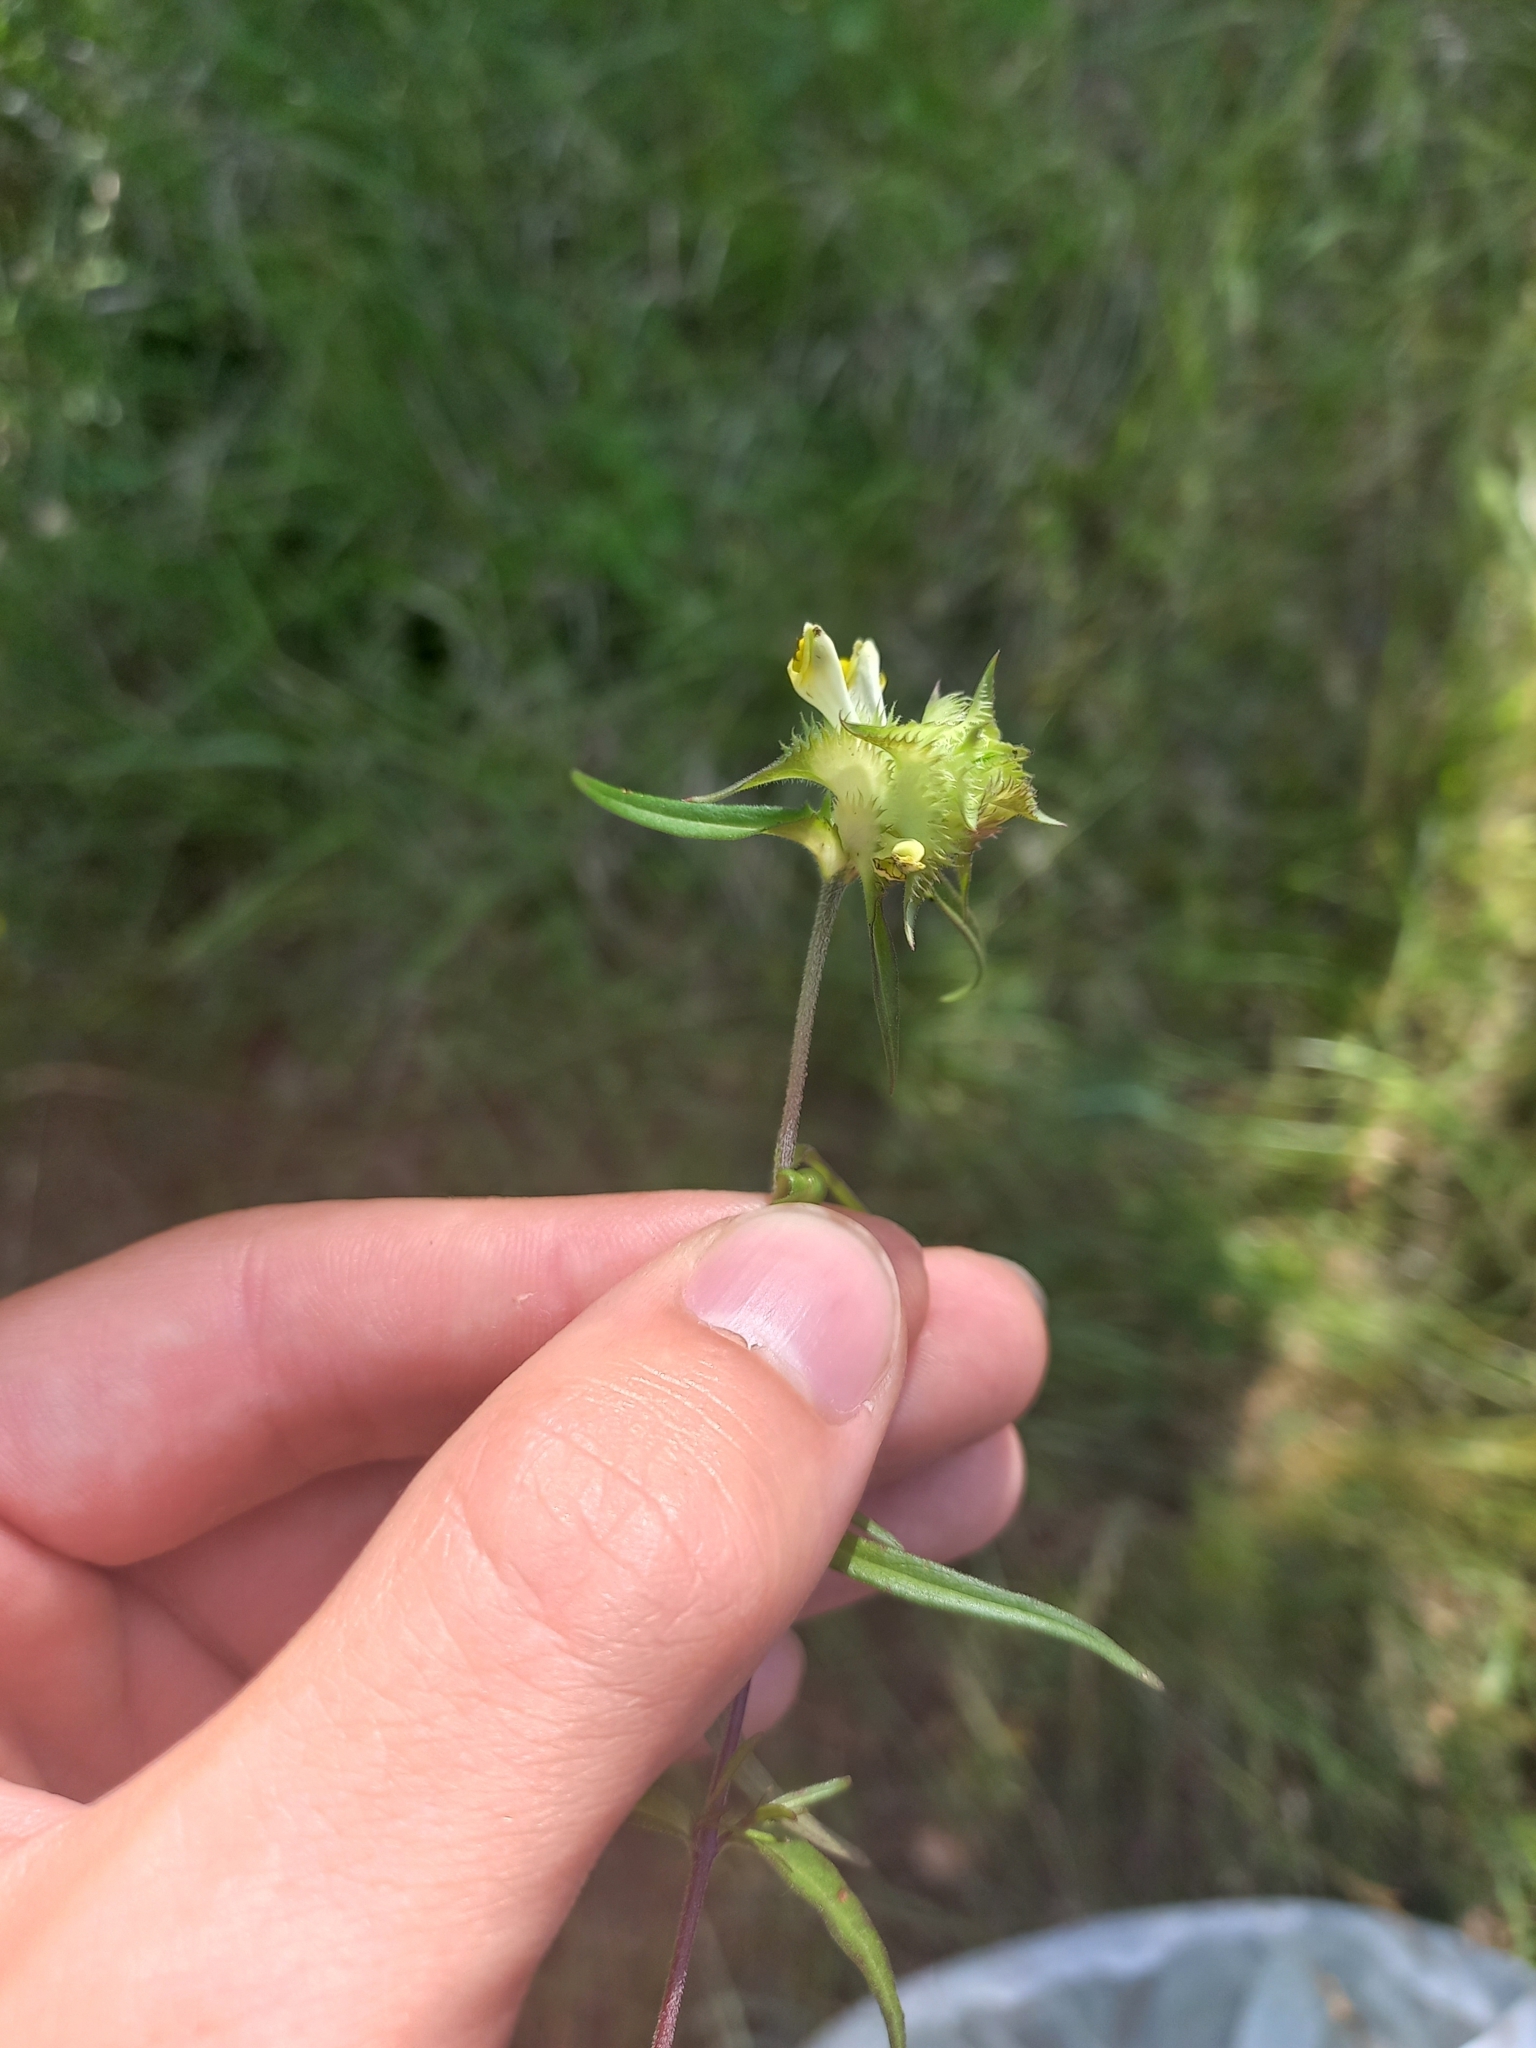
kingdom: Plantae
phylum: Tracheophyta
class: Magnoliopsida
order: Lamiales
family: Orobanchaceae
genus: Melampyrum
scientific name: Melampyrum cristatum
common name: Crested cow-wheat
